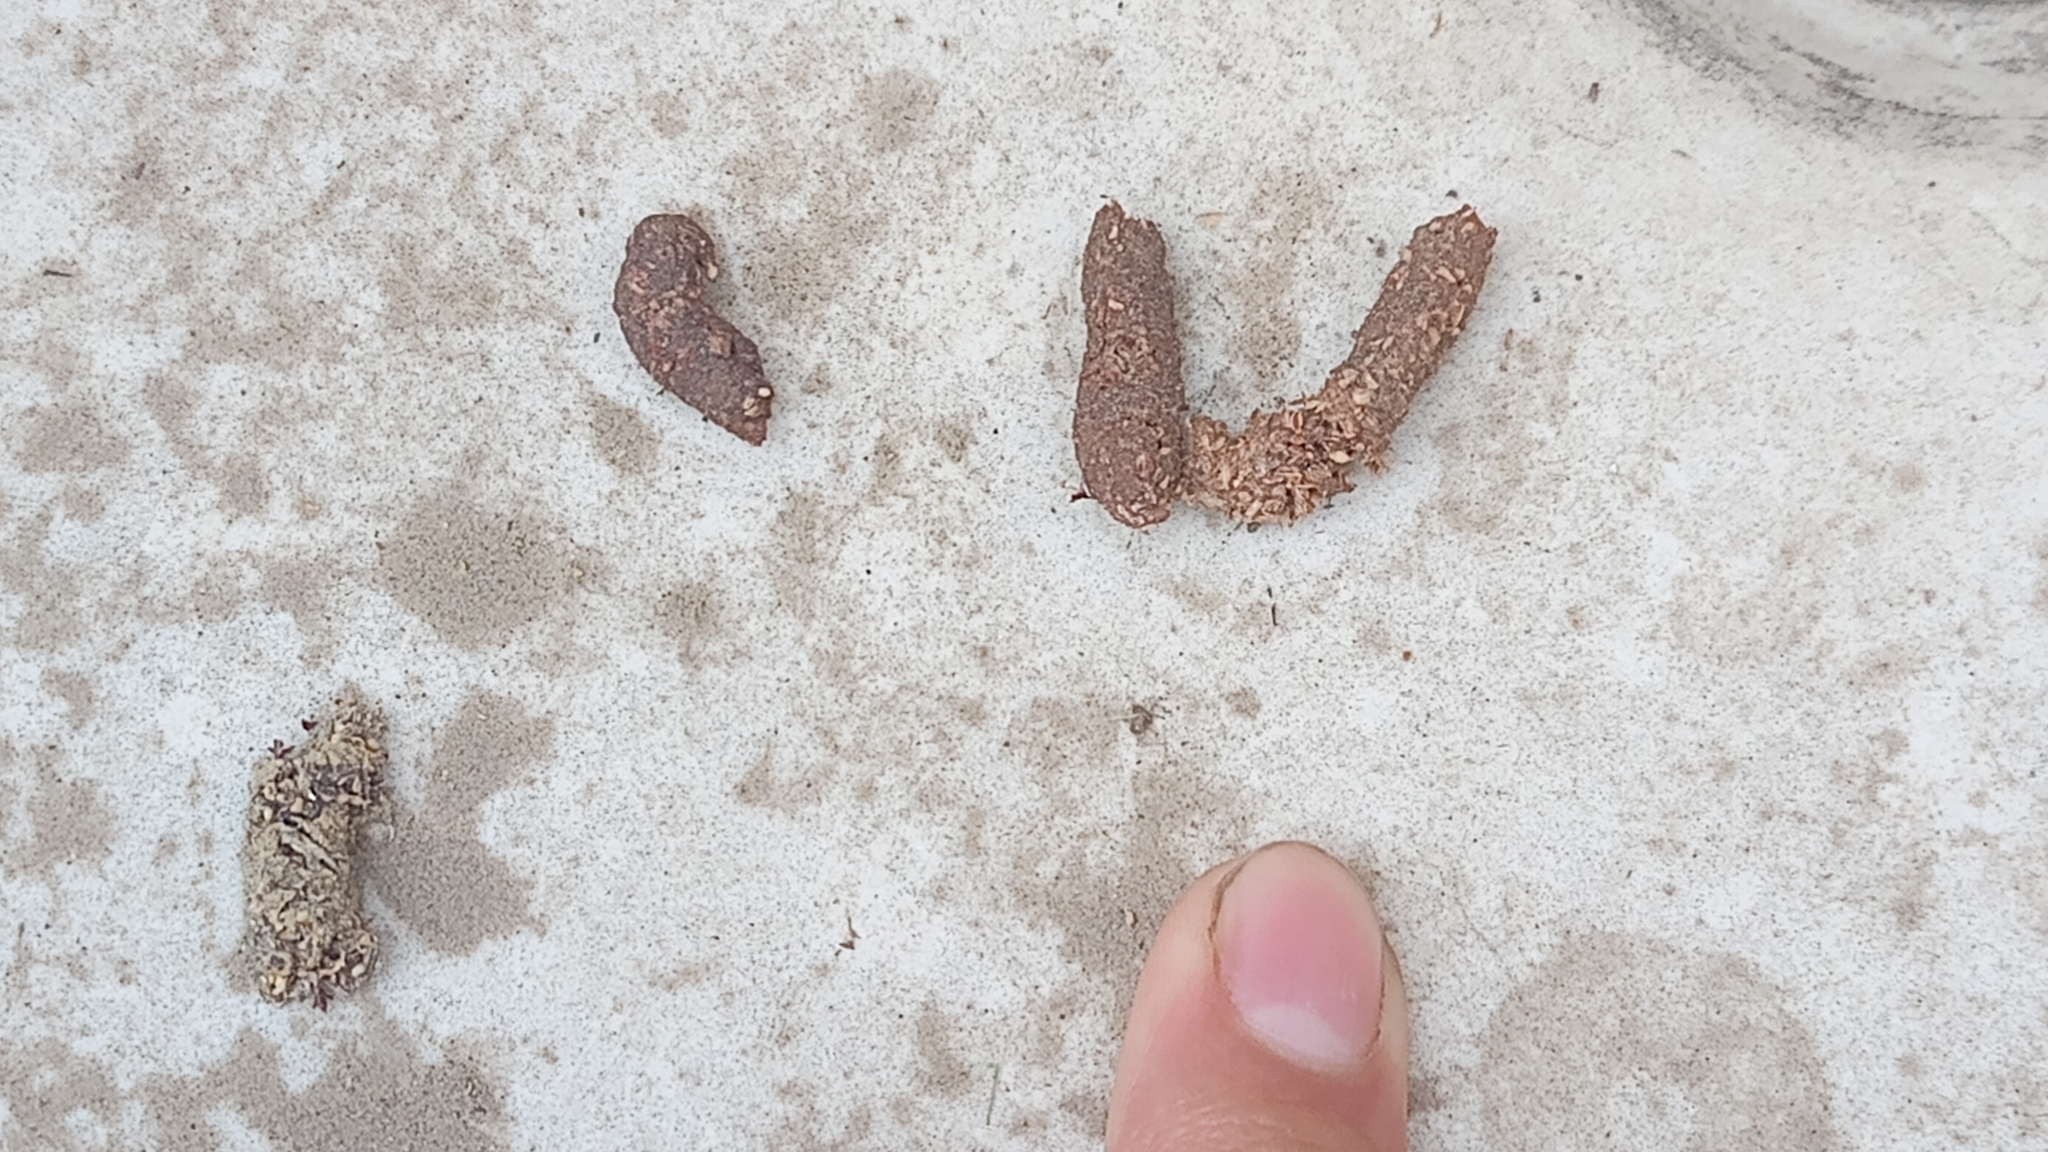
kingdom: Animalia
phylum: Chordata
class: Mammalia
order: Carnivora
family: Procyonidae
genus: Bassariscus
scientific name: Bassariscus astutus
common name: Ringtail
